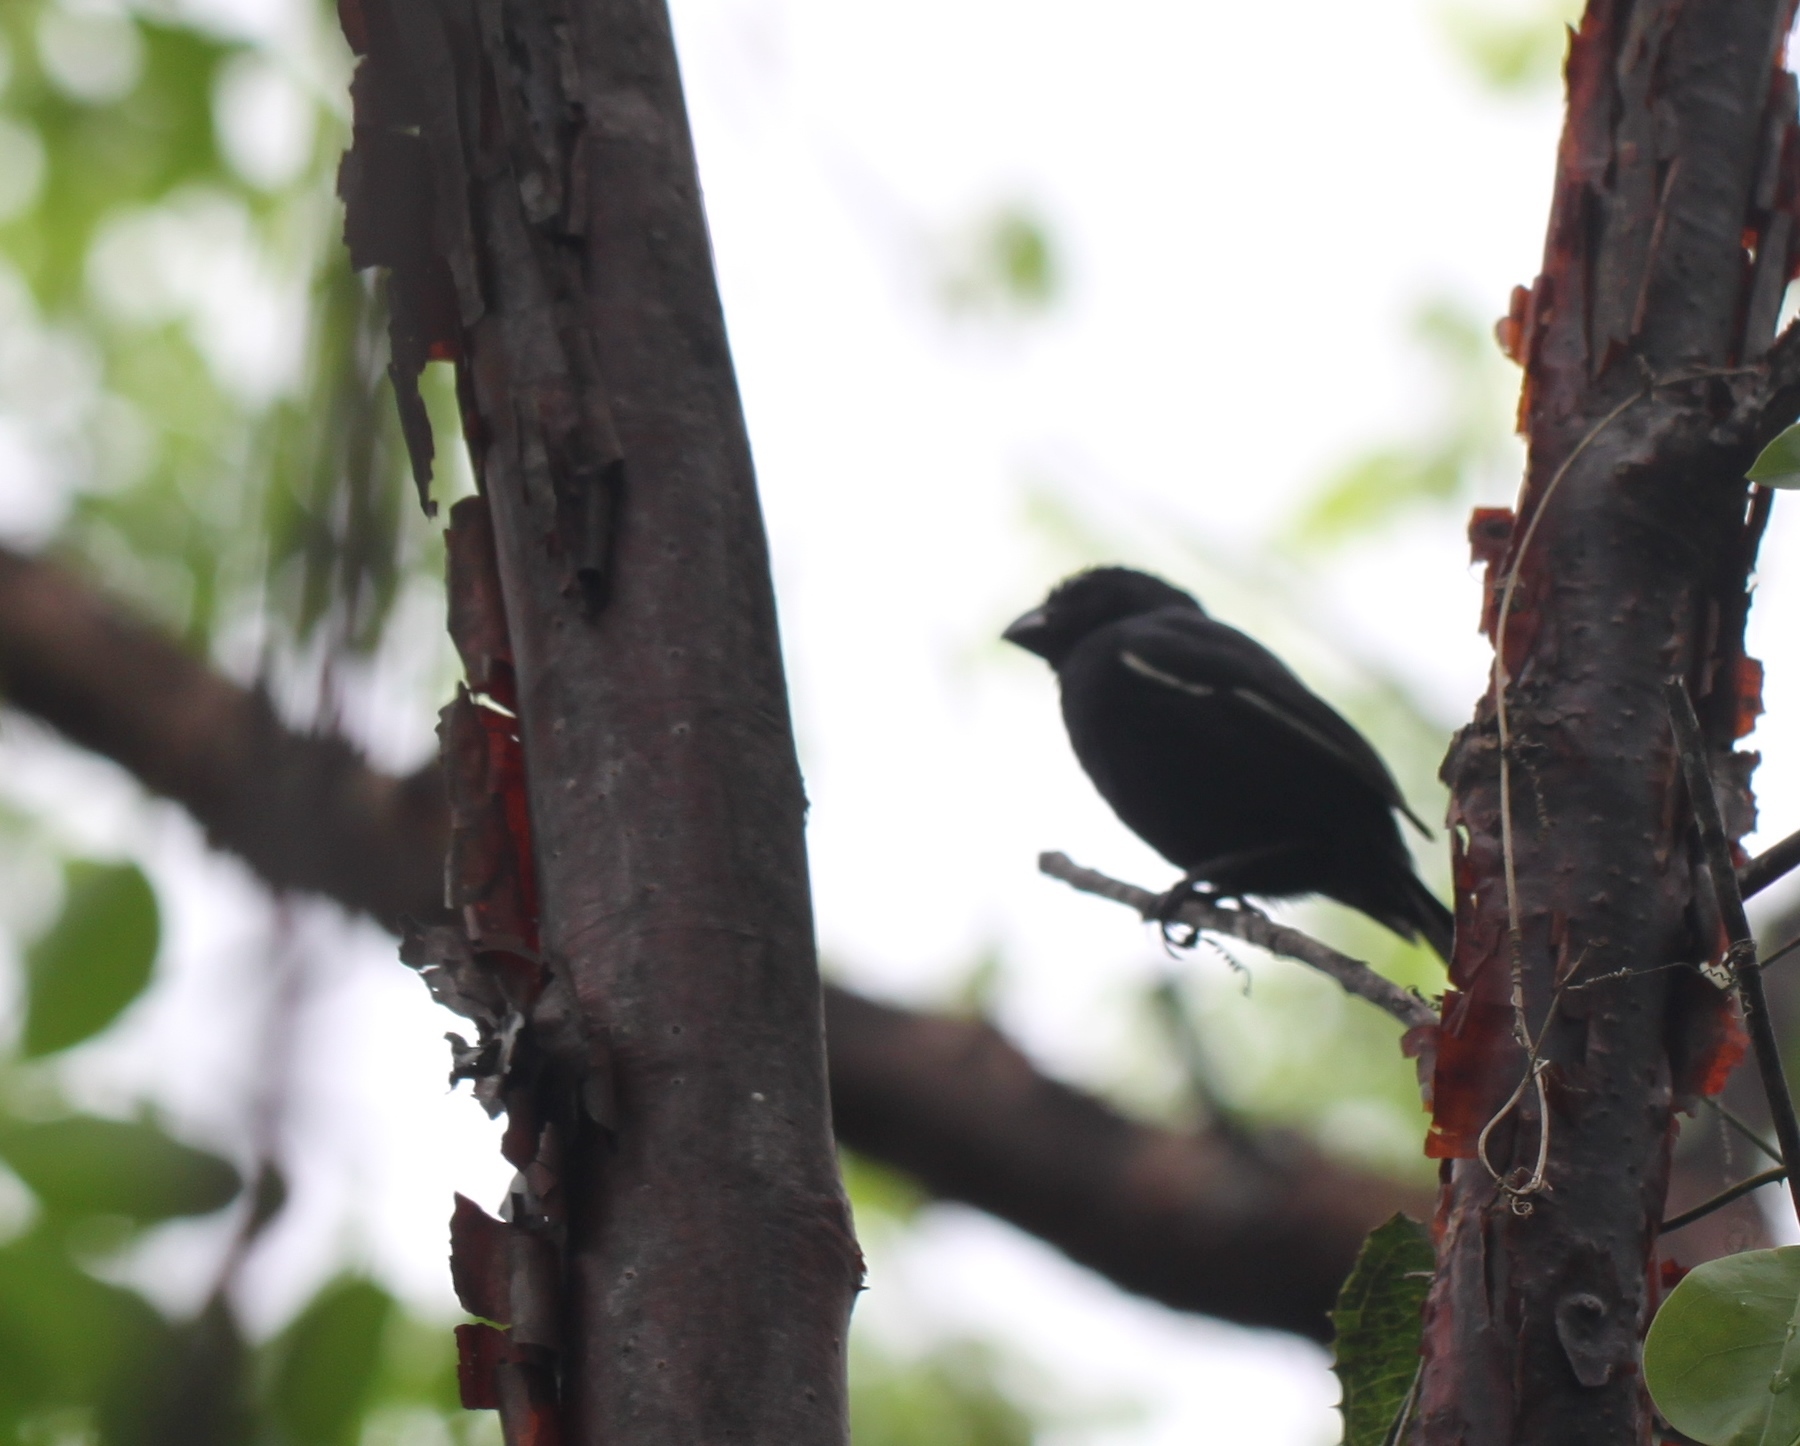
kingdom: Animalia
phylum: Chordata
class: Aves
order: Passeriformes
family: Thraupidae
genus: Melopyrrha
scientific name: Melopyrrha nigra
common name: Cuban bullfinch
